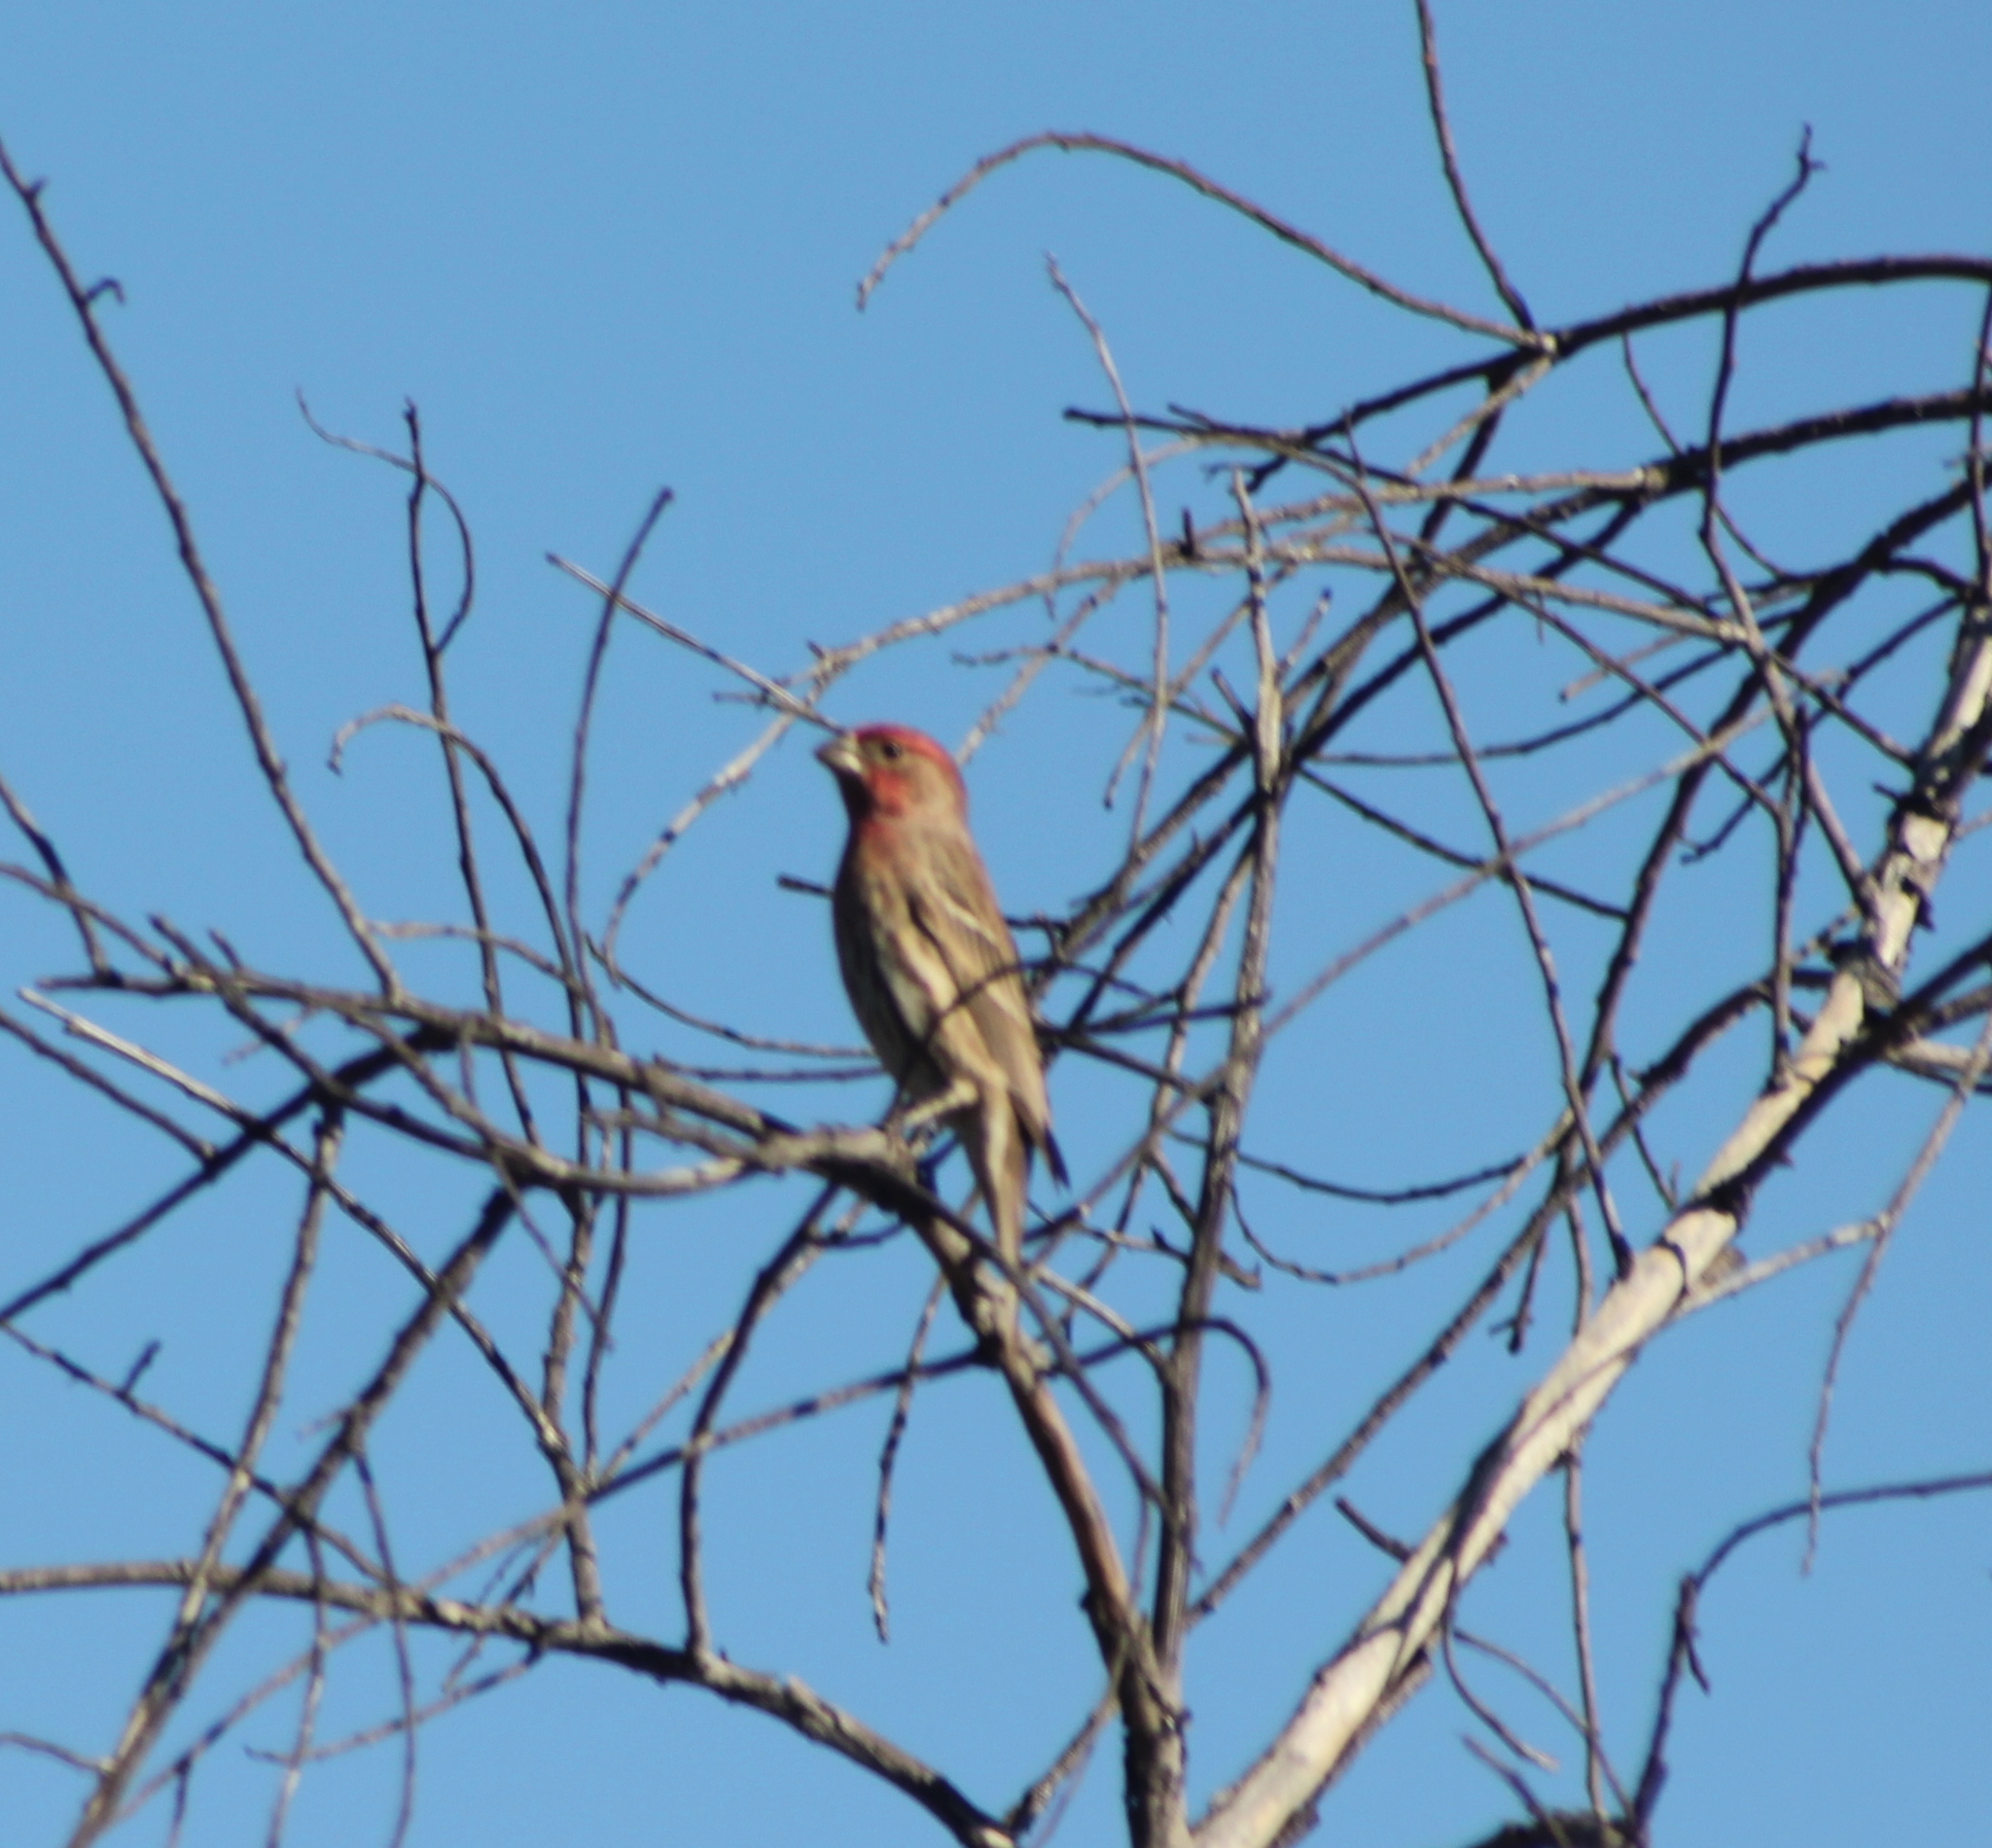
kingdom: Animalia
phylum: Chordata
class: Aves
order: Passeriformes
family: Fringillidae
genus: Haemorhous
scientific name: Haemorhous mexicanus
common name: House finch
